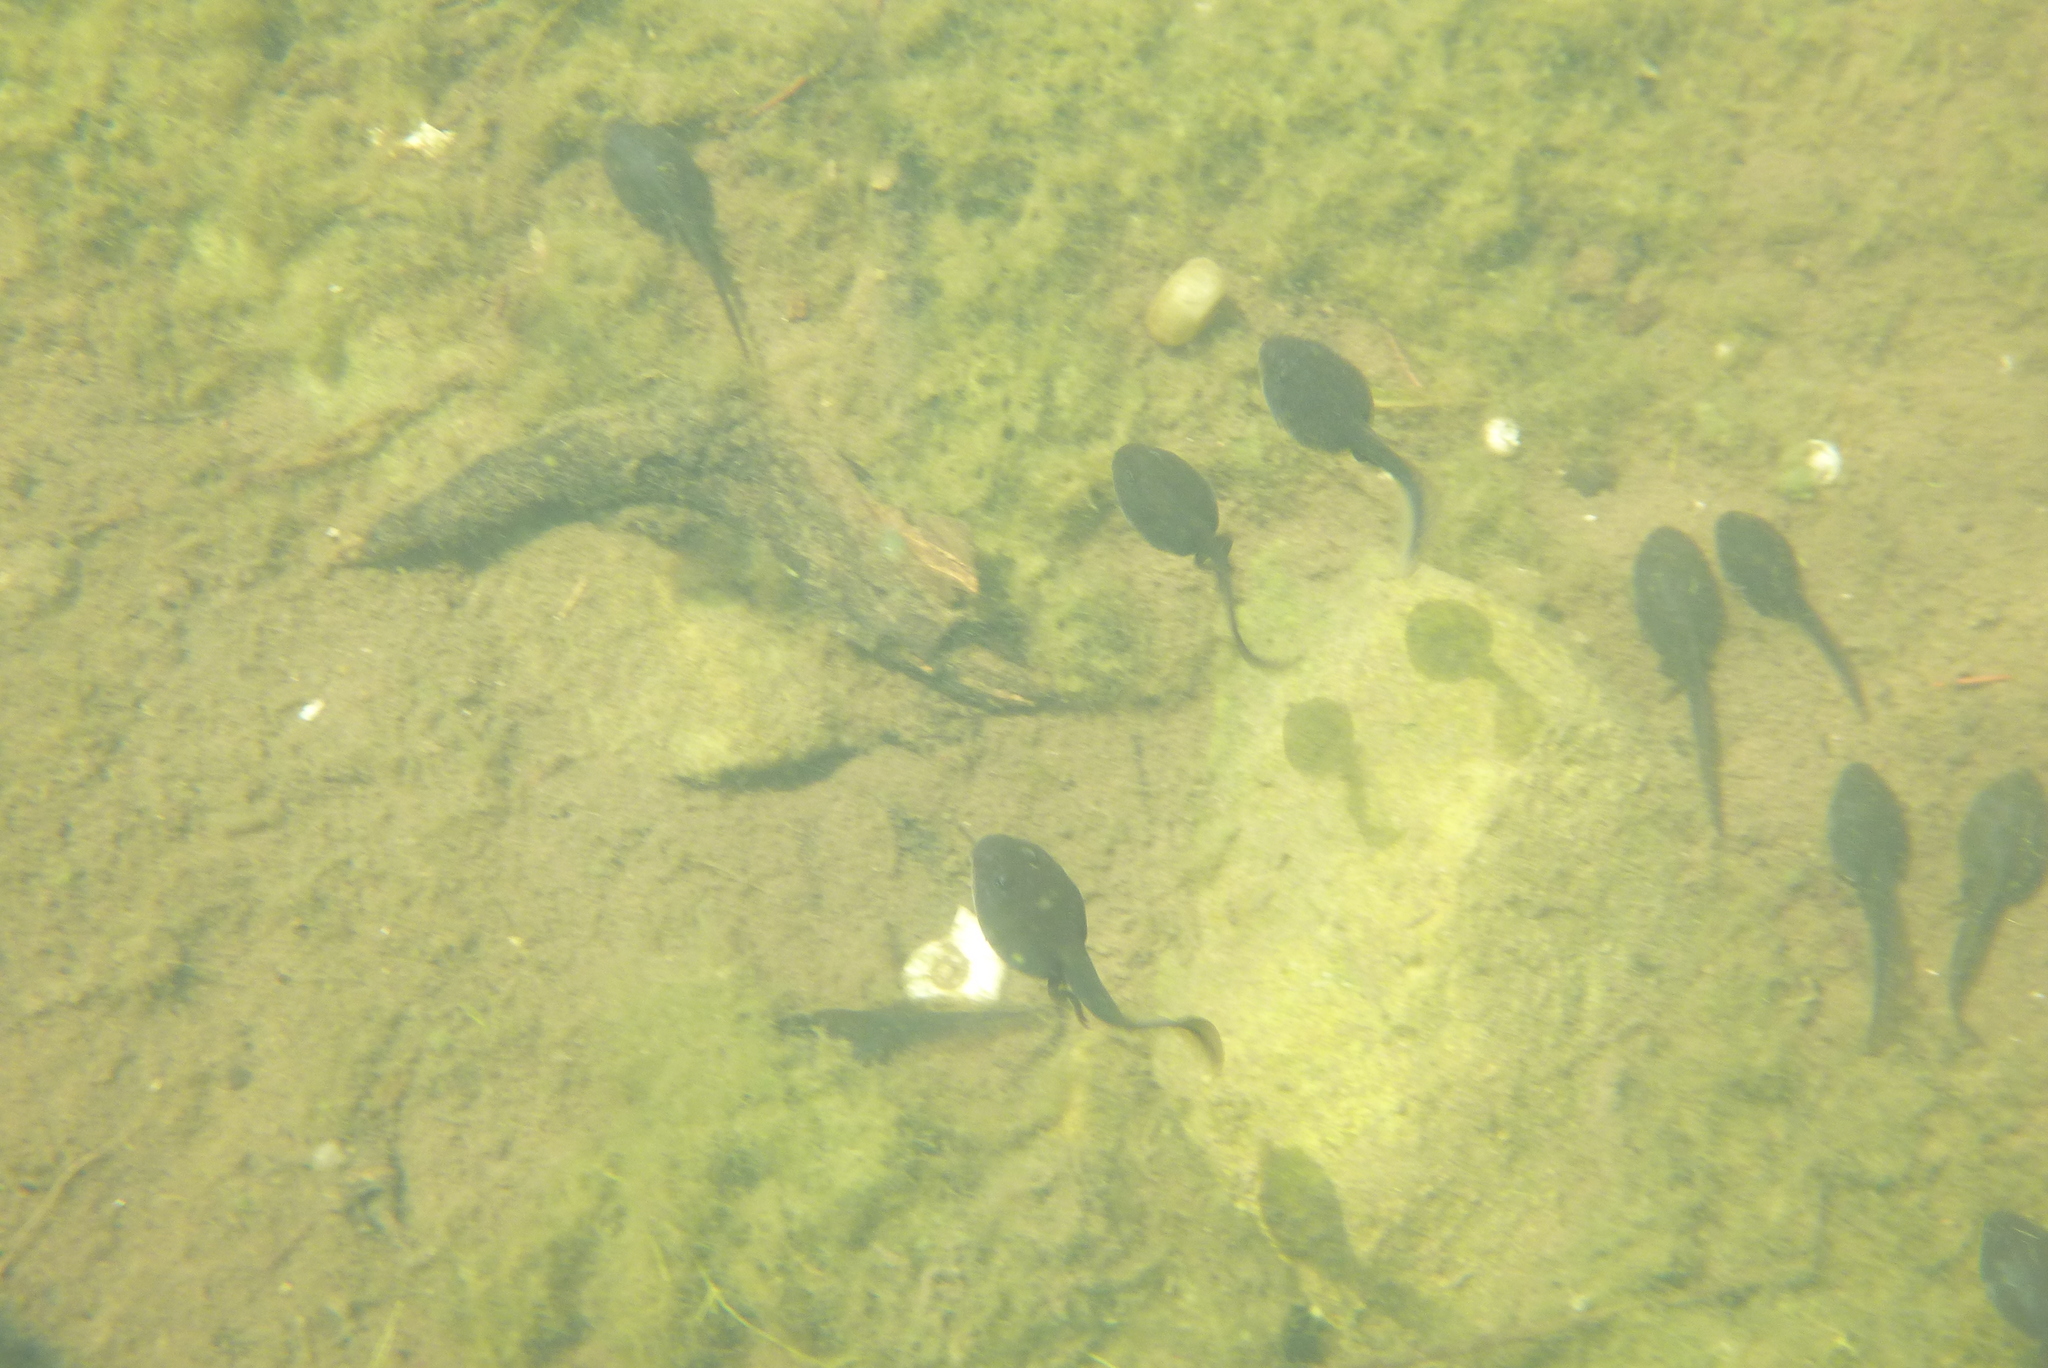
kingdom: Animalia
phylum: Chordata
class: Amphibia
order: Anura
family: Bufonidae
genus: Anaxyrus
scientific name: Anaxyrus boreas
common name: Western toad
